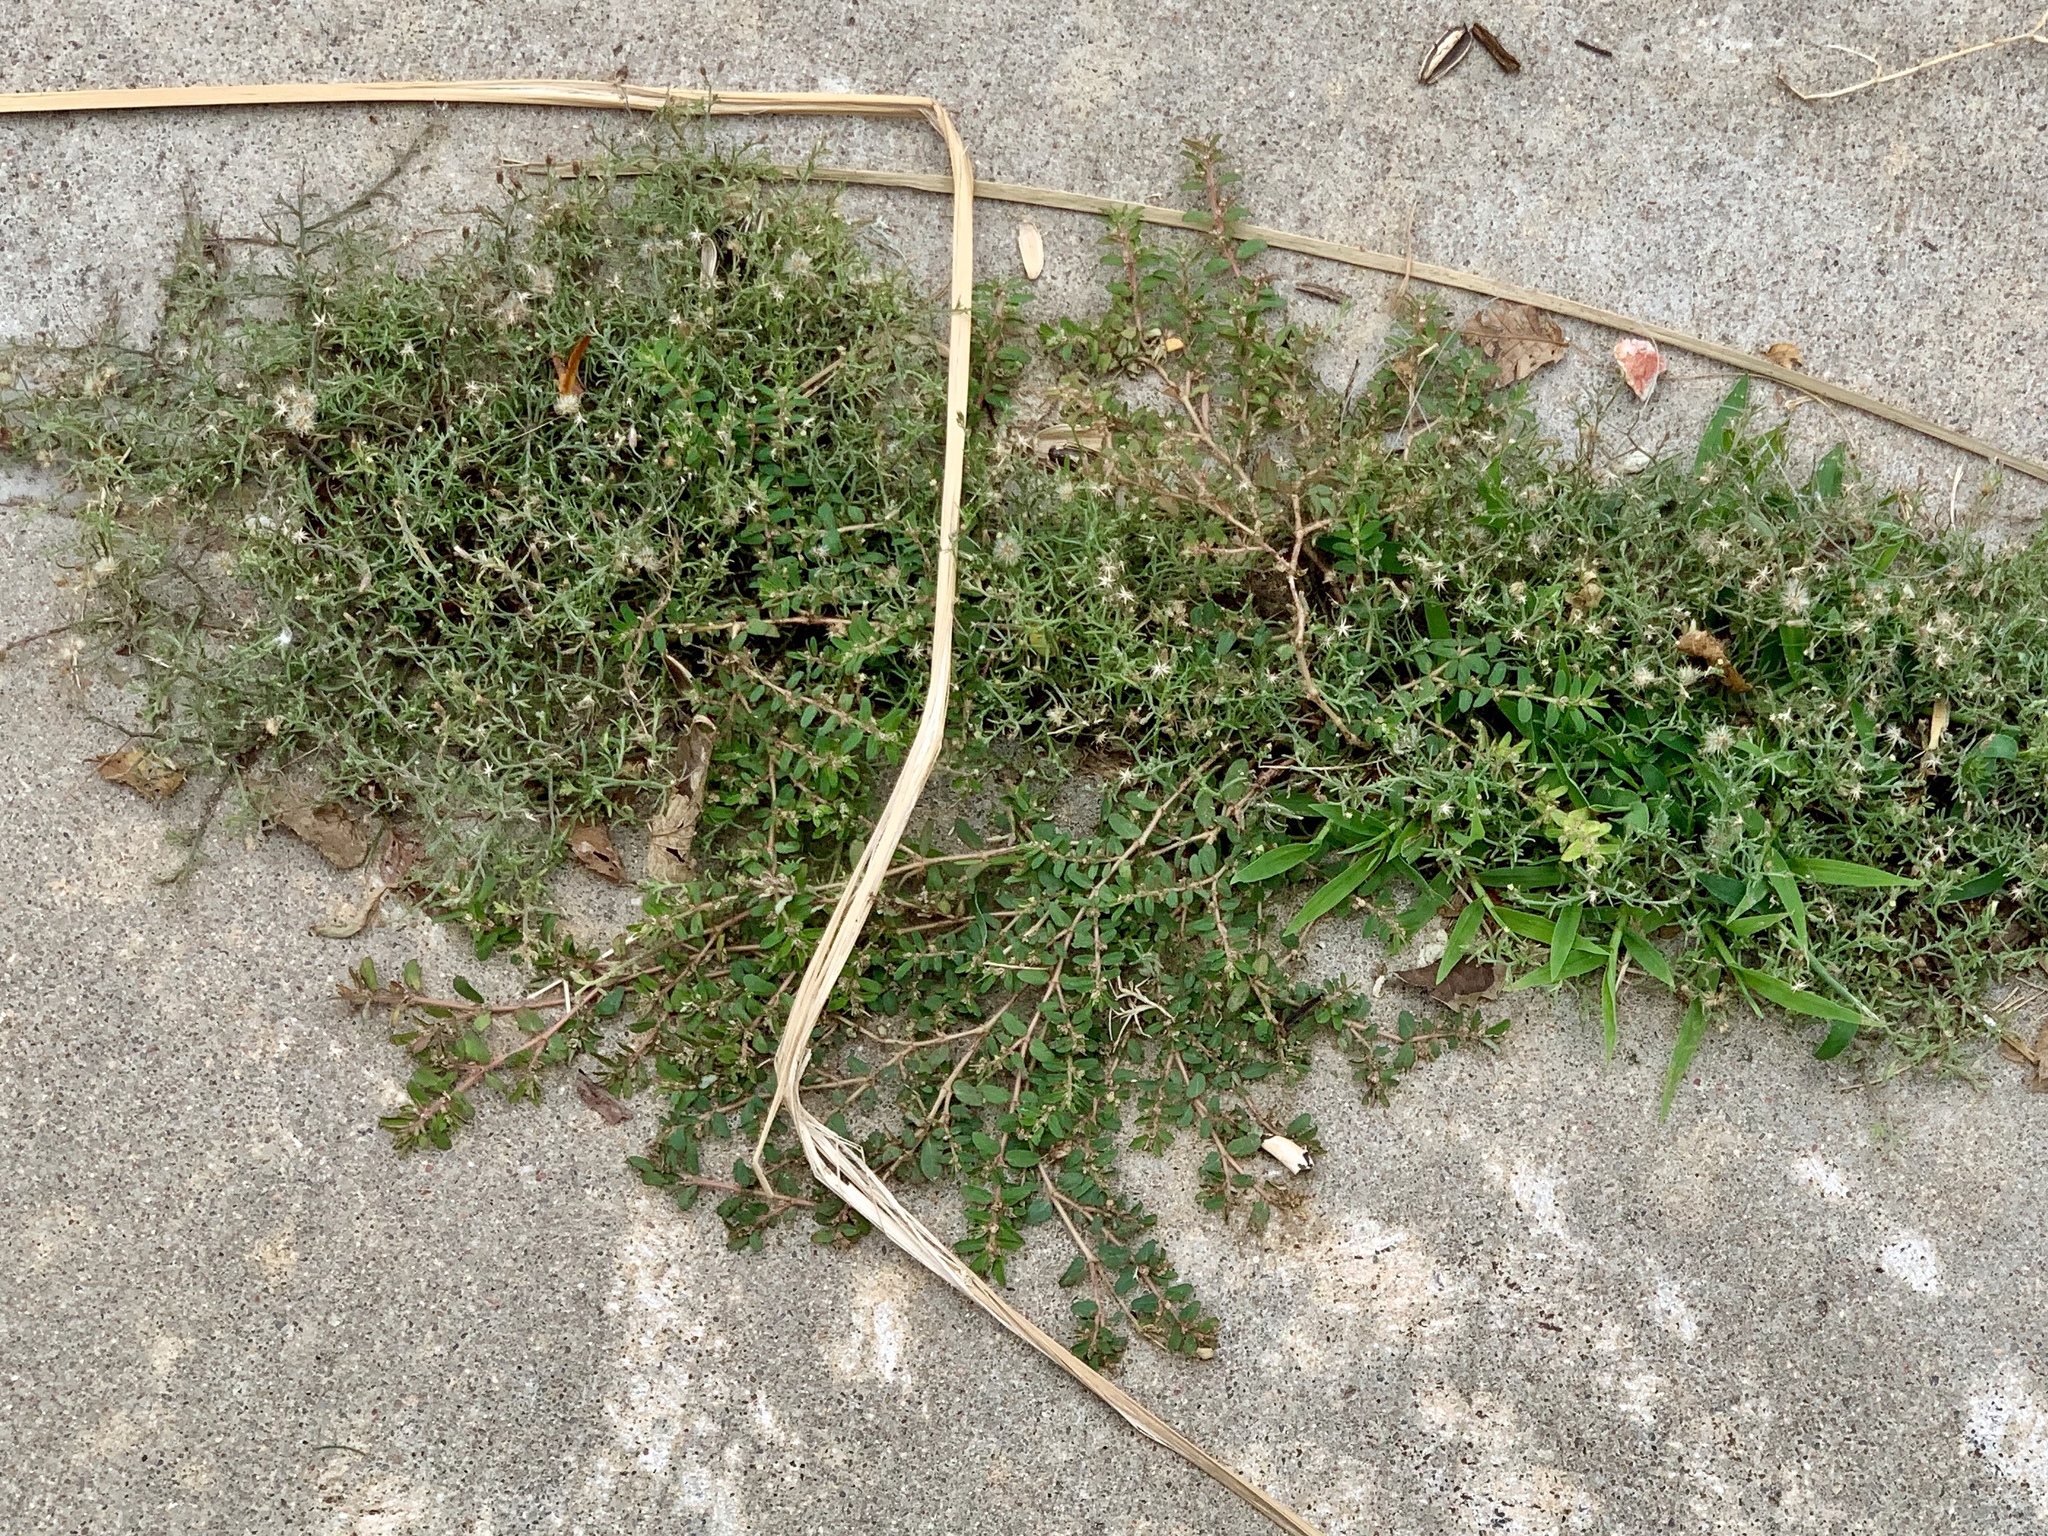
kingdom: Plantae
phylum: Tracheophyta
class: Magnoliopsida
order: Malpighiales
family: Euphorbiaceae
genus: Euphorbia
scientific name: Euphorbia maculata
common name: Spotted spurge
